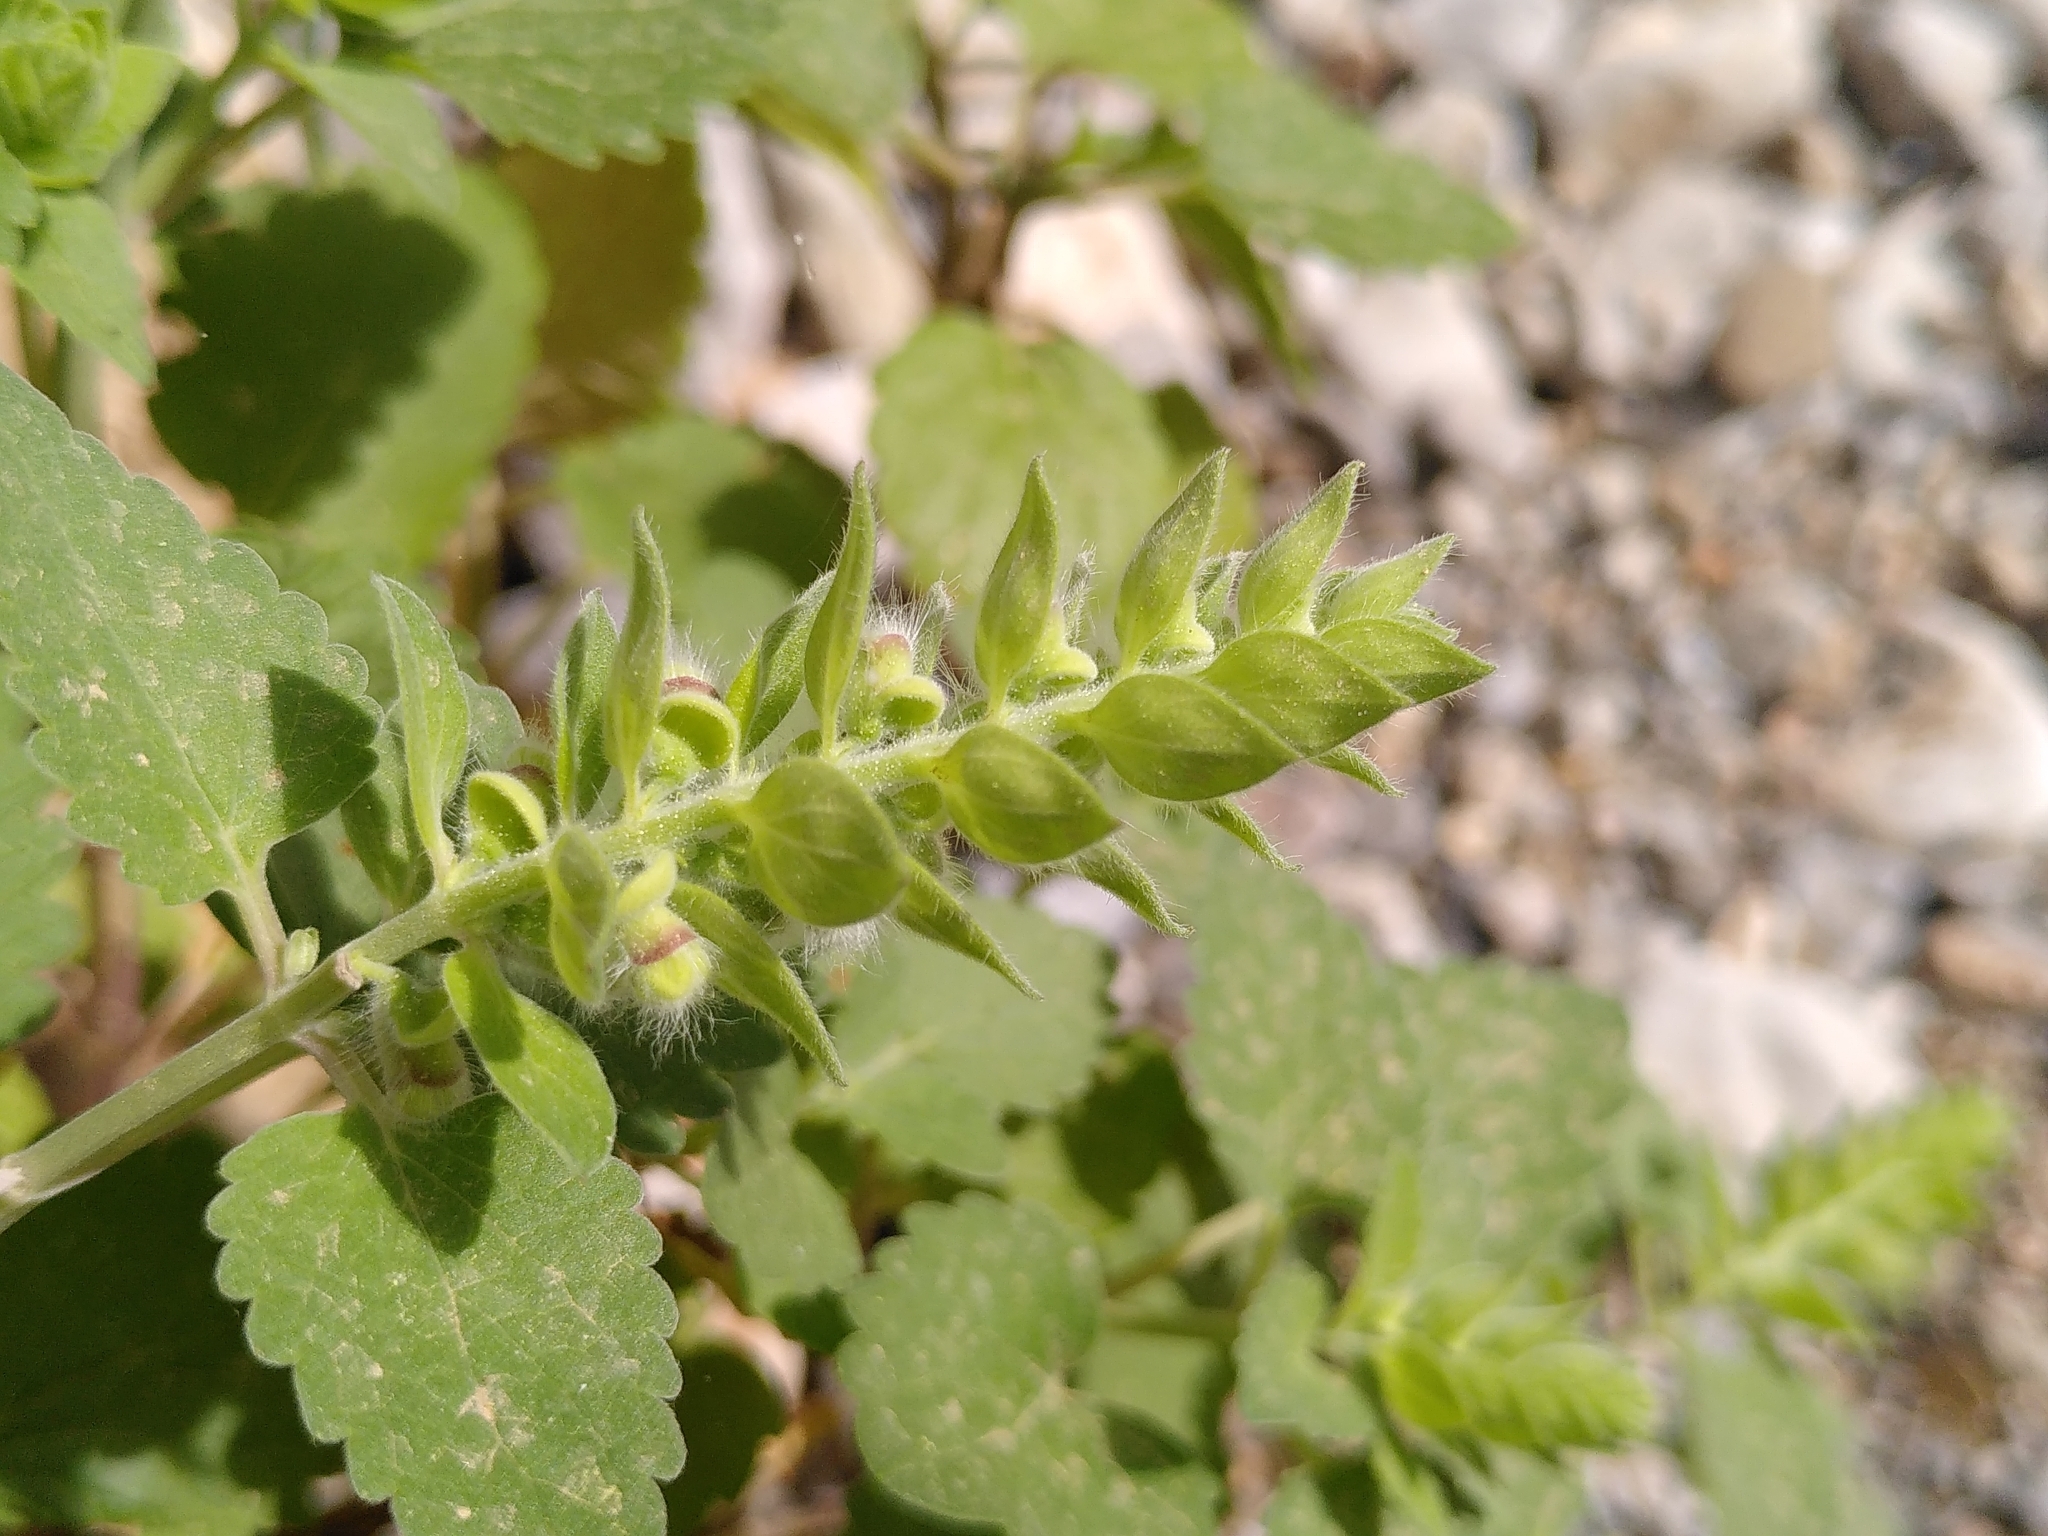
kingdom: Plantae
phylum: Tracheophyta
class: Magnoliopsida
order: Lamiales
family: Lamiaceae
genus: Scutellaria
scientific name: Scutellaria sieberi
